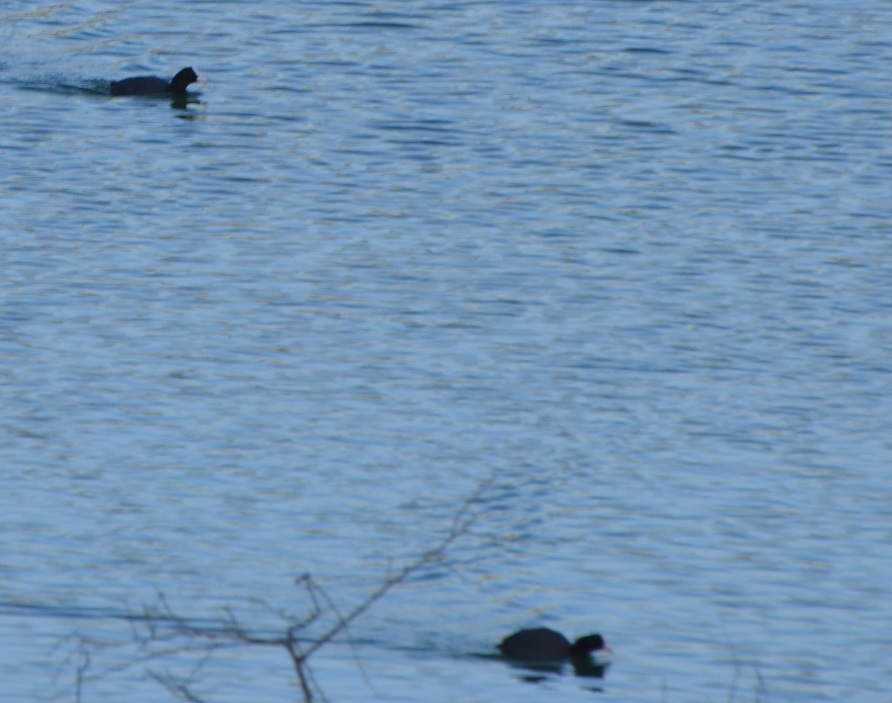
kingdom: Animalia
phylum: Chordata
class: Aves
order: Gruiformes
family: Rallidae
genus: Fulica
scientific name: Fulica atra
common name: Eurasian coot
